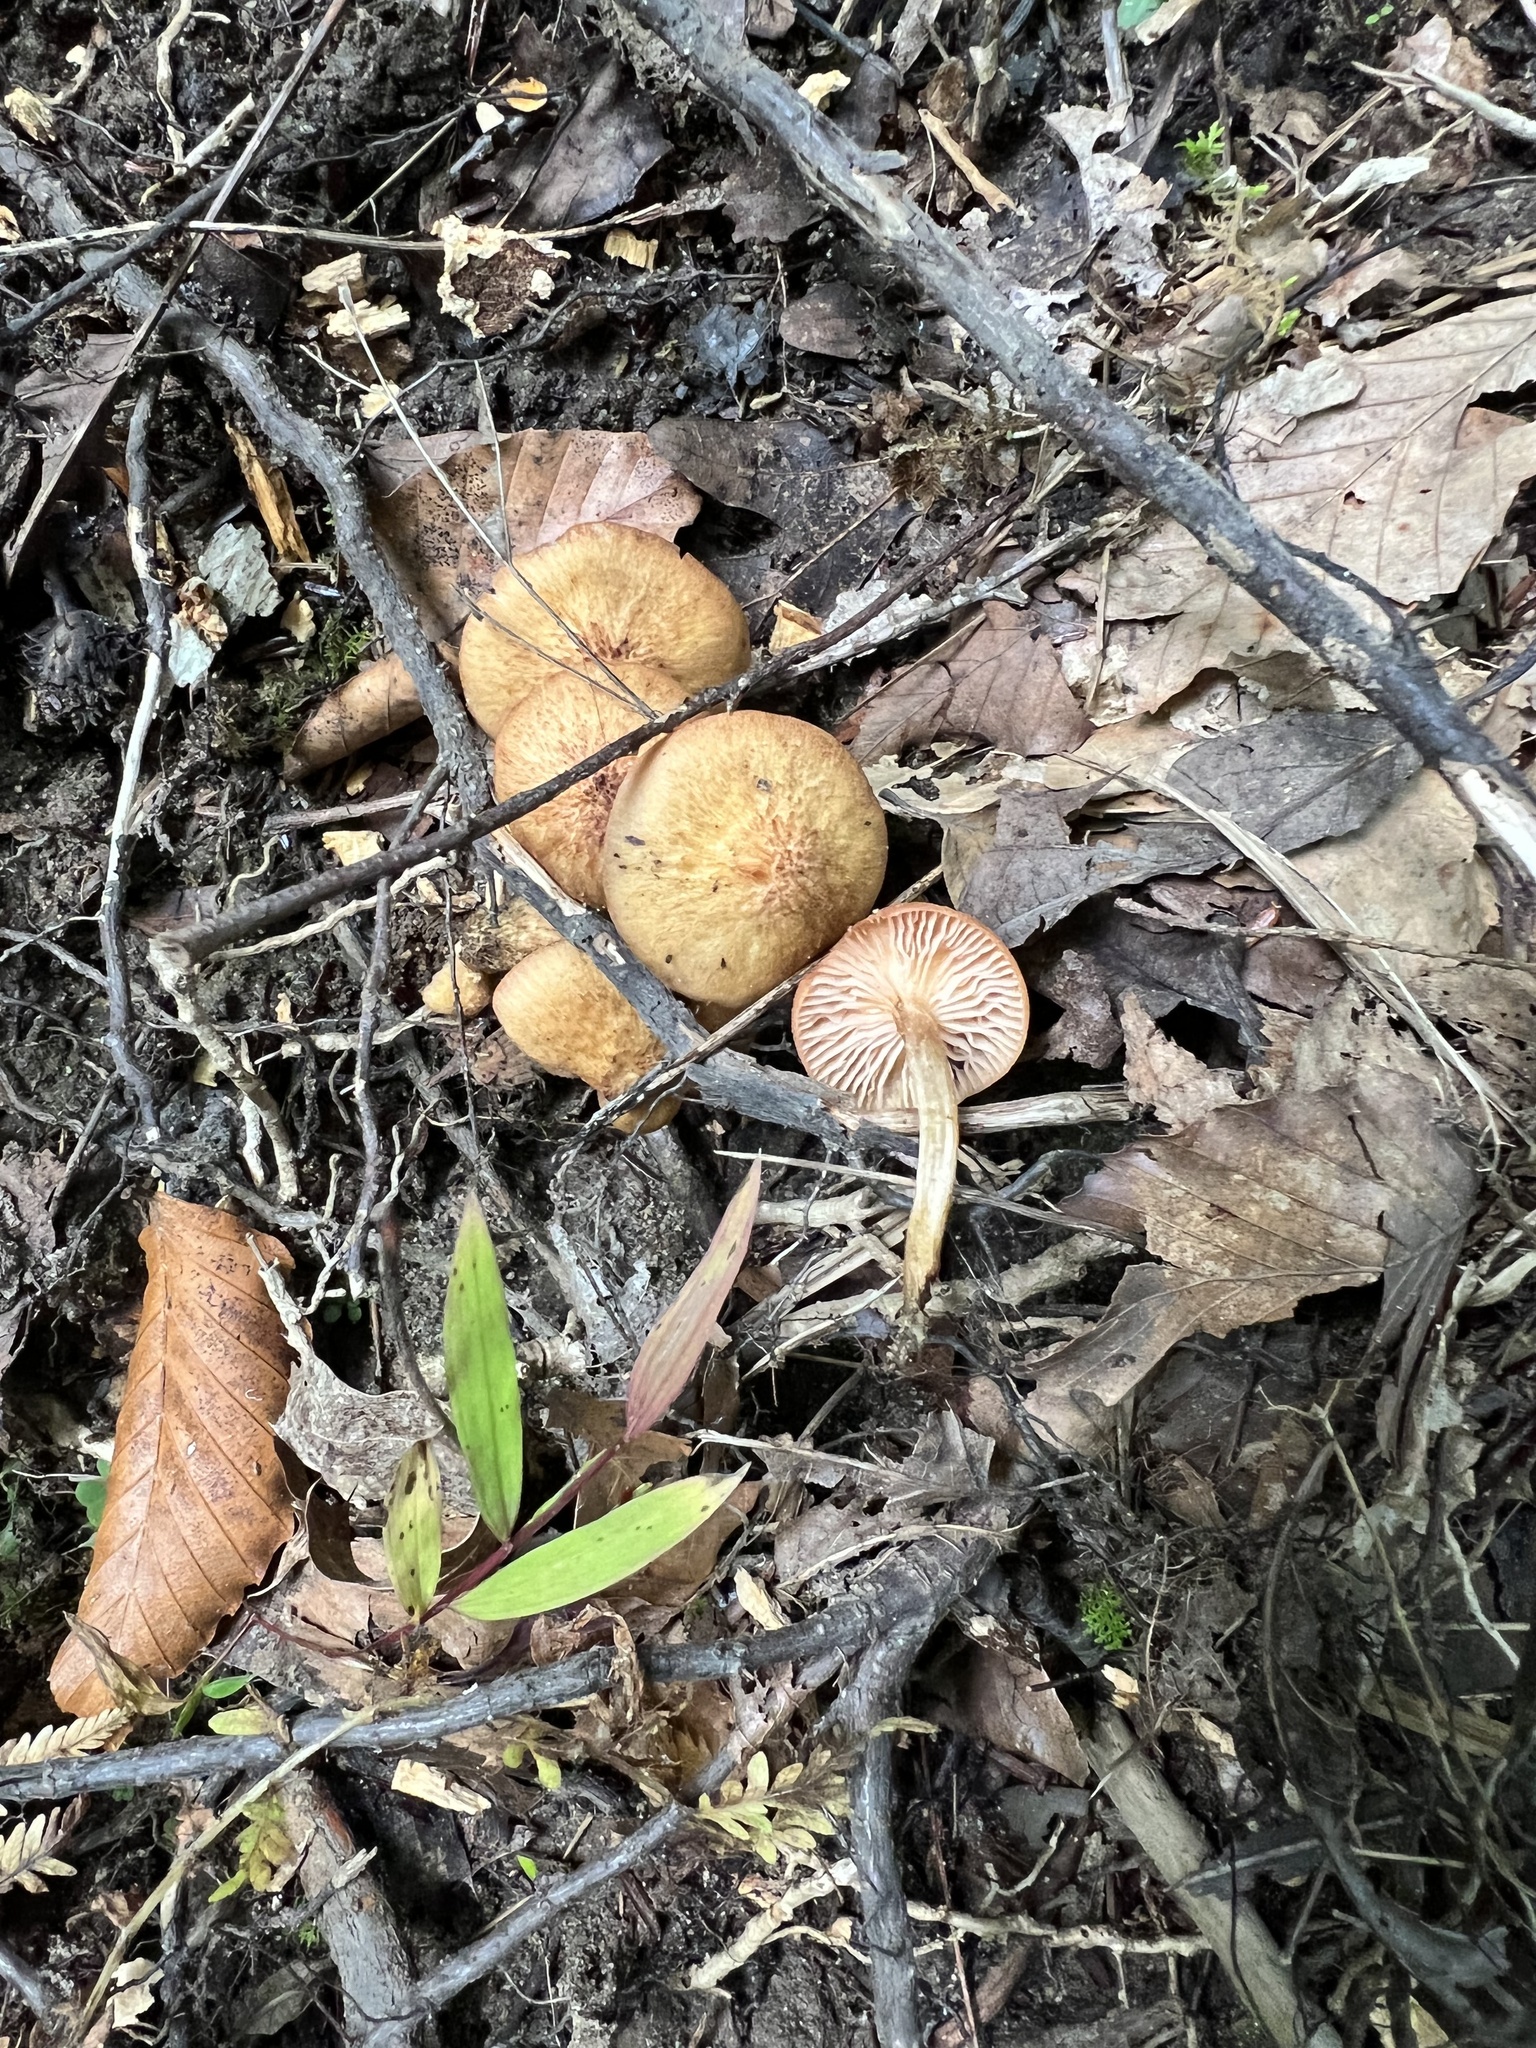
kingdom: Fungi
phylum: Basidiomycota
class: Agaricomycetes
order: Agaricales
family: Physalacriaceae
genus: Desarmillaria
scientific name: Desarmillaria caespitosa
